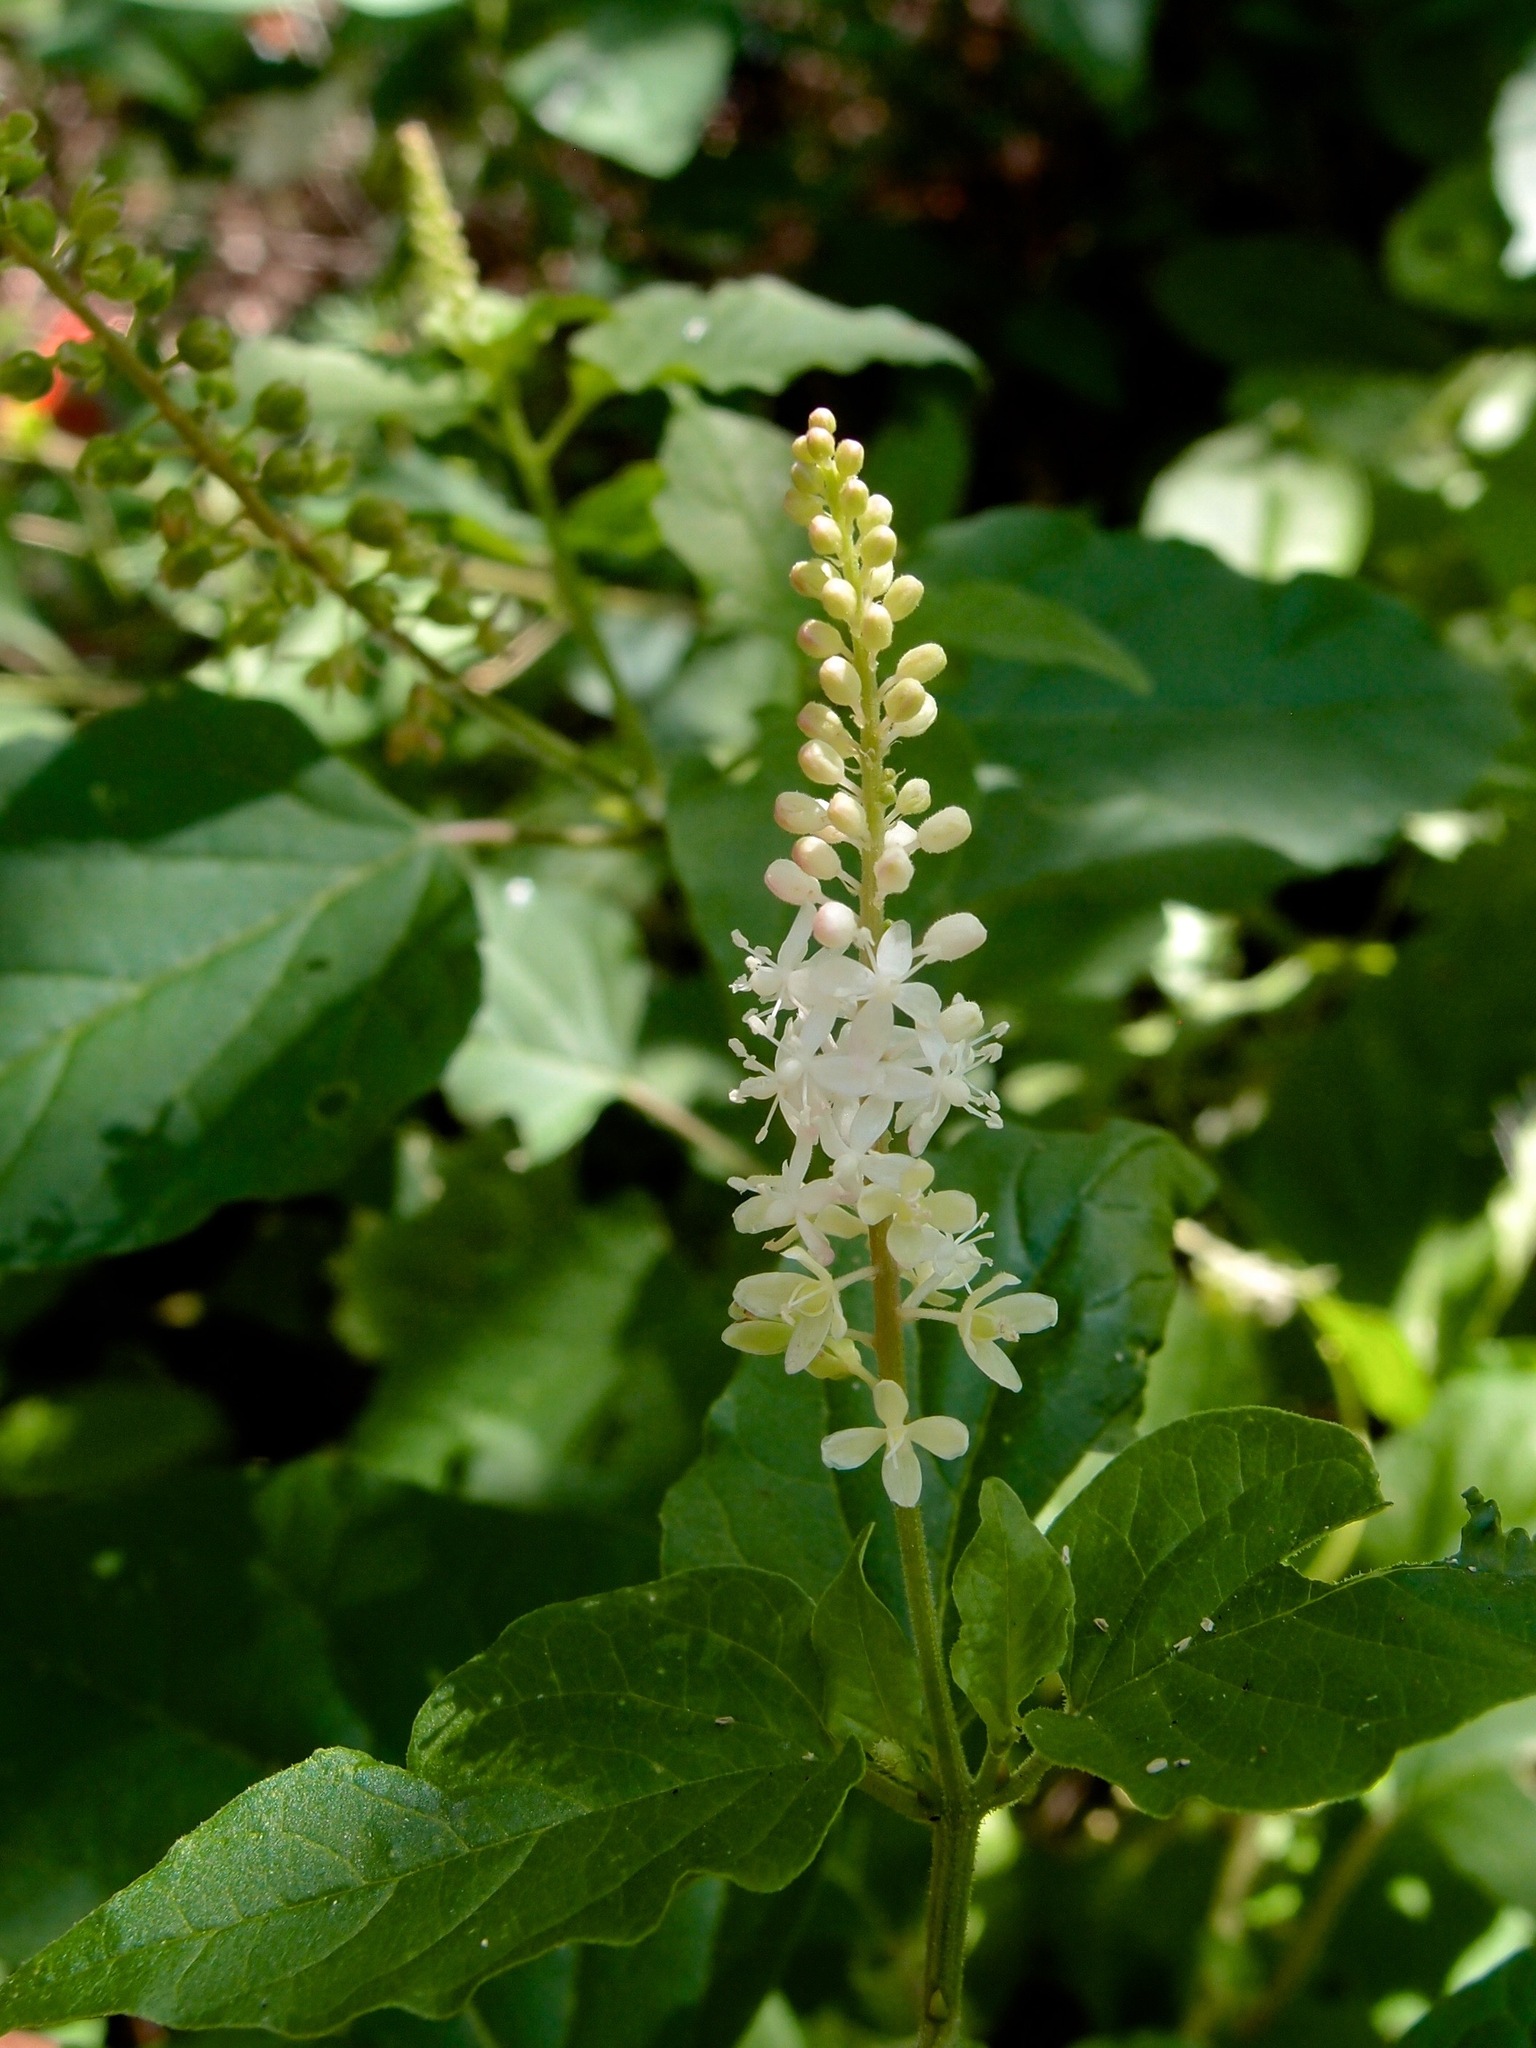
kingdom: Plantae
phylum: Tracheophyta
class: Magnoliopsida
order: Caryophyllales
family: Phytolaccaceae
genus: Rivina
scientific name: Rivina humilis
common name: Rougeplant
